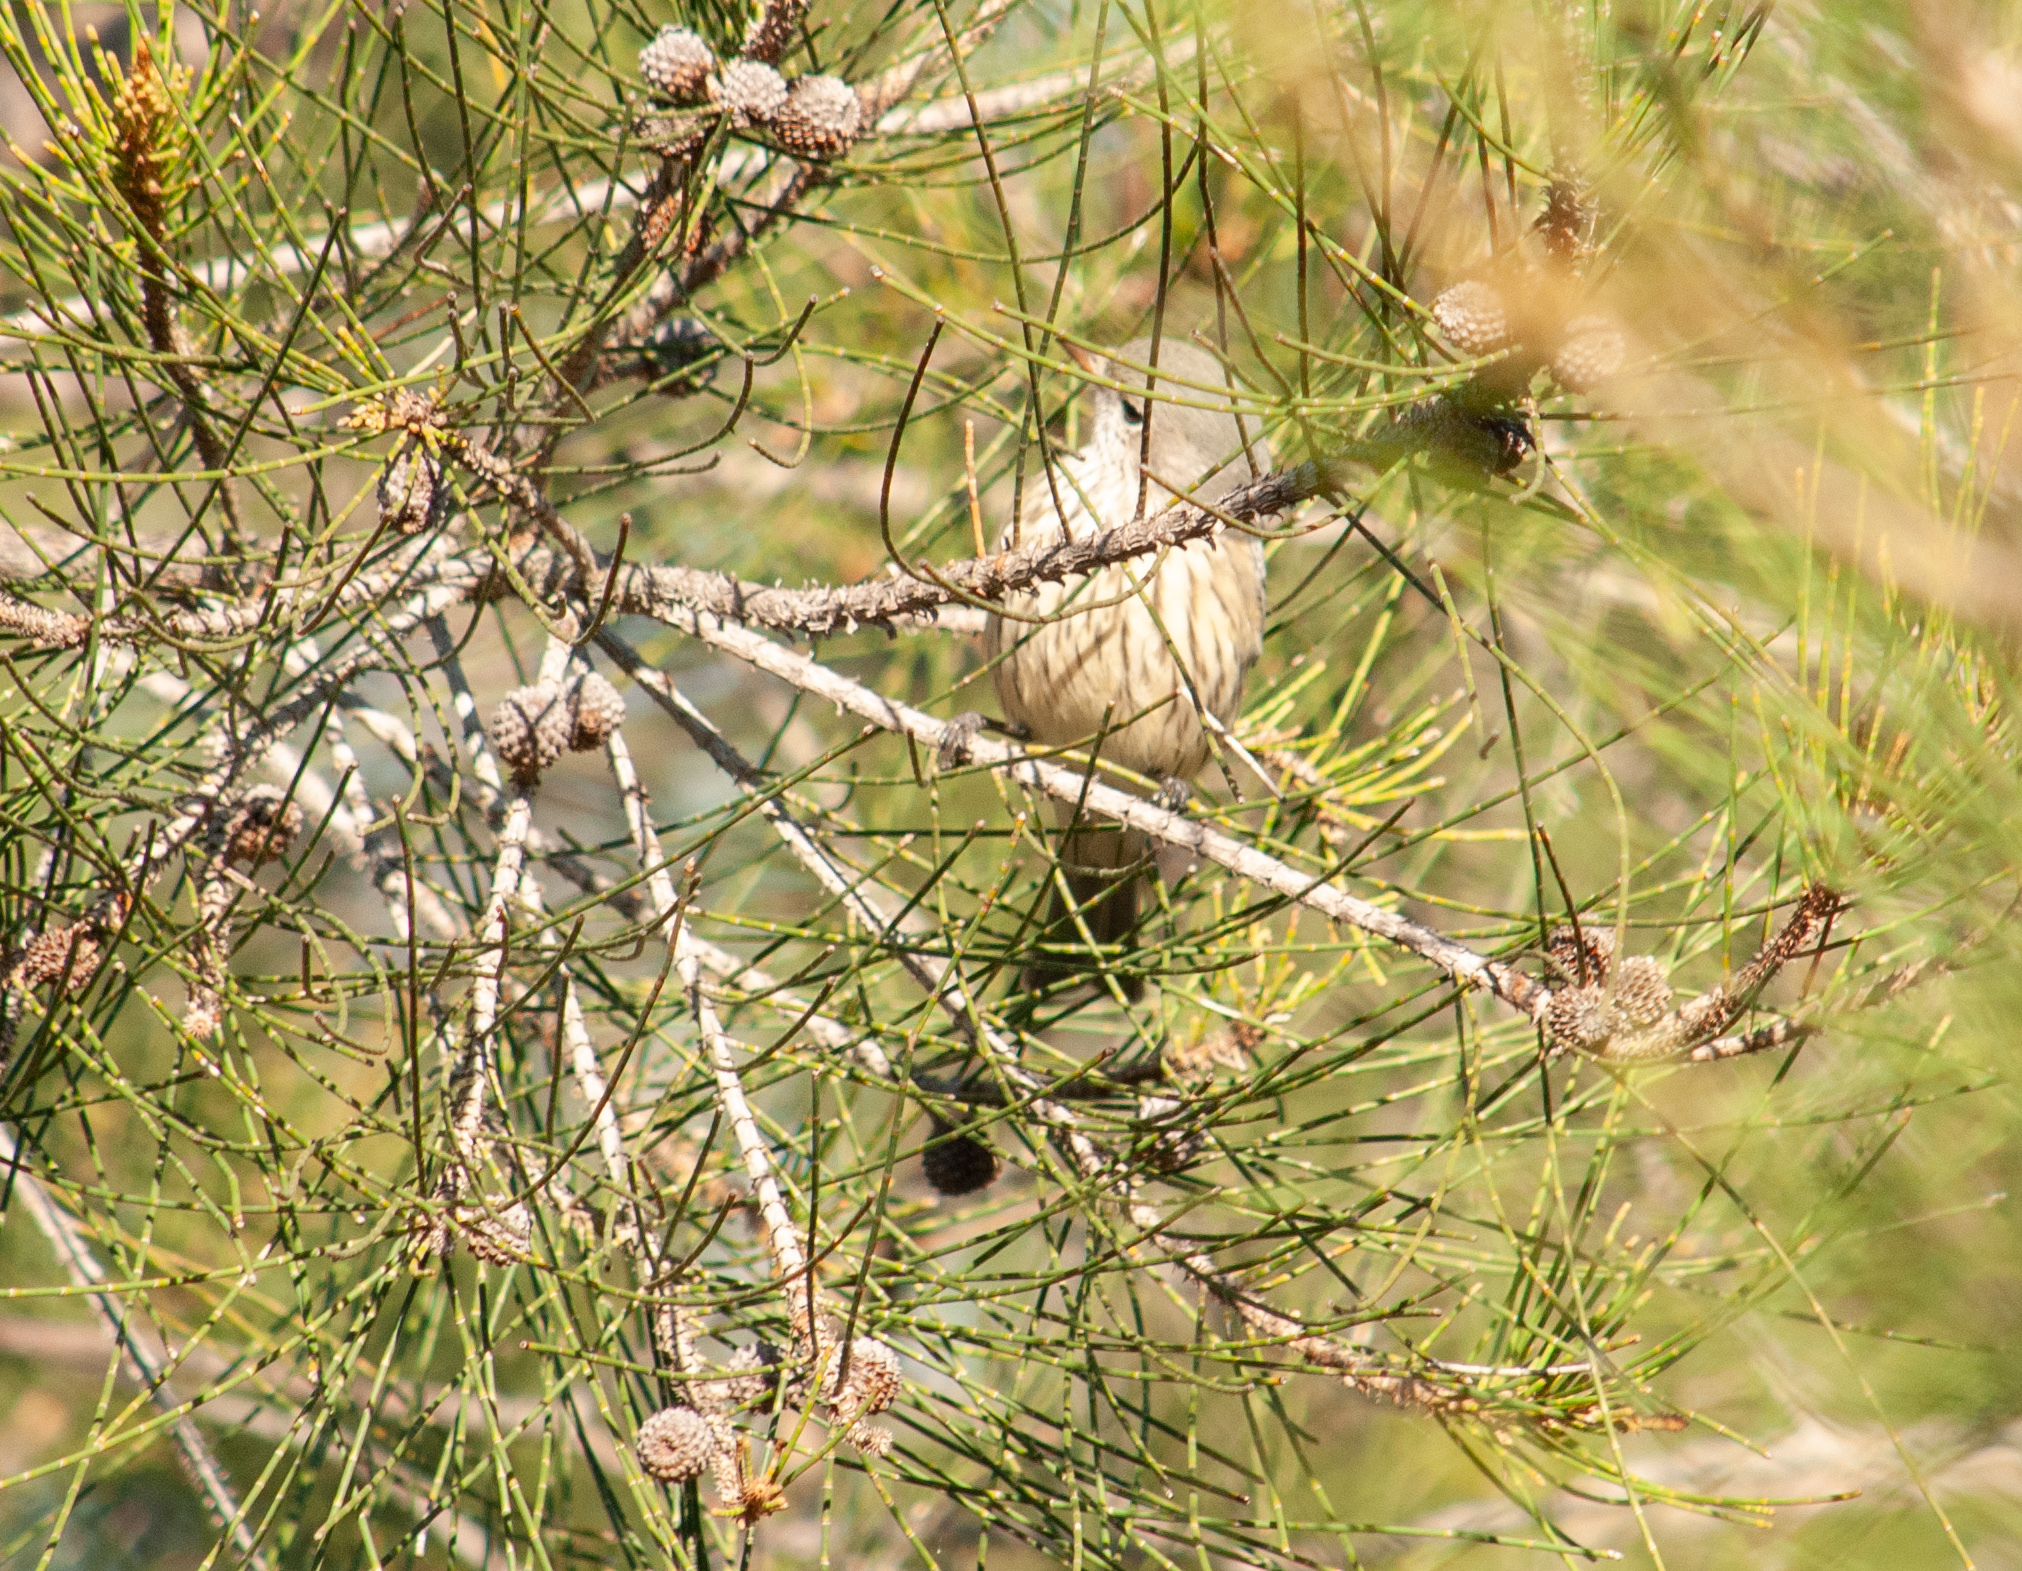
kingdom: Animalia
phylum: Chordata
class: Aves
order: Passeriformes
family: Pachycephalidae
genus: Pachycephala
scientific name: Pachycephala rufiventris
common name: Rufous whistler
